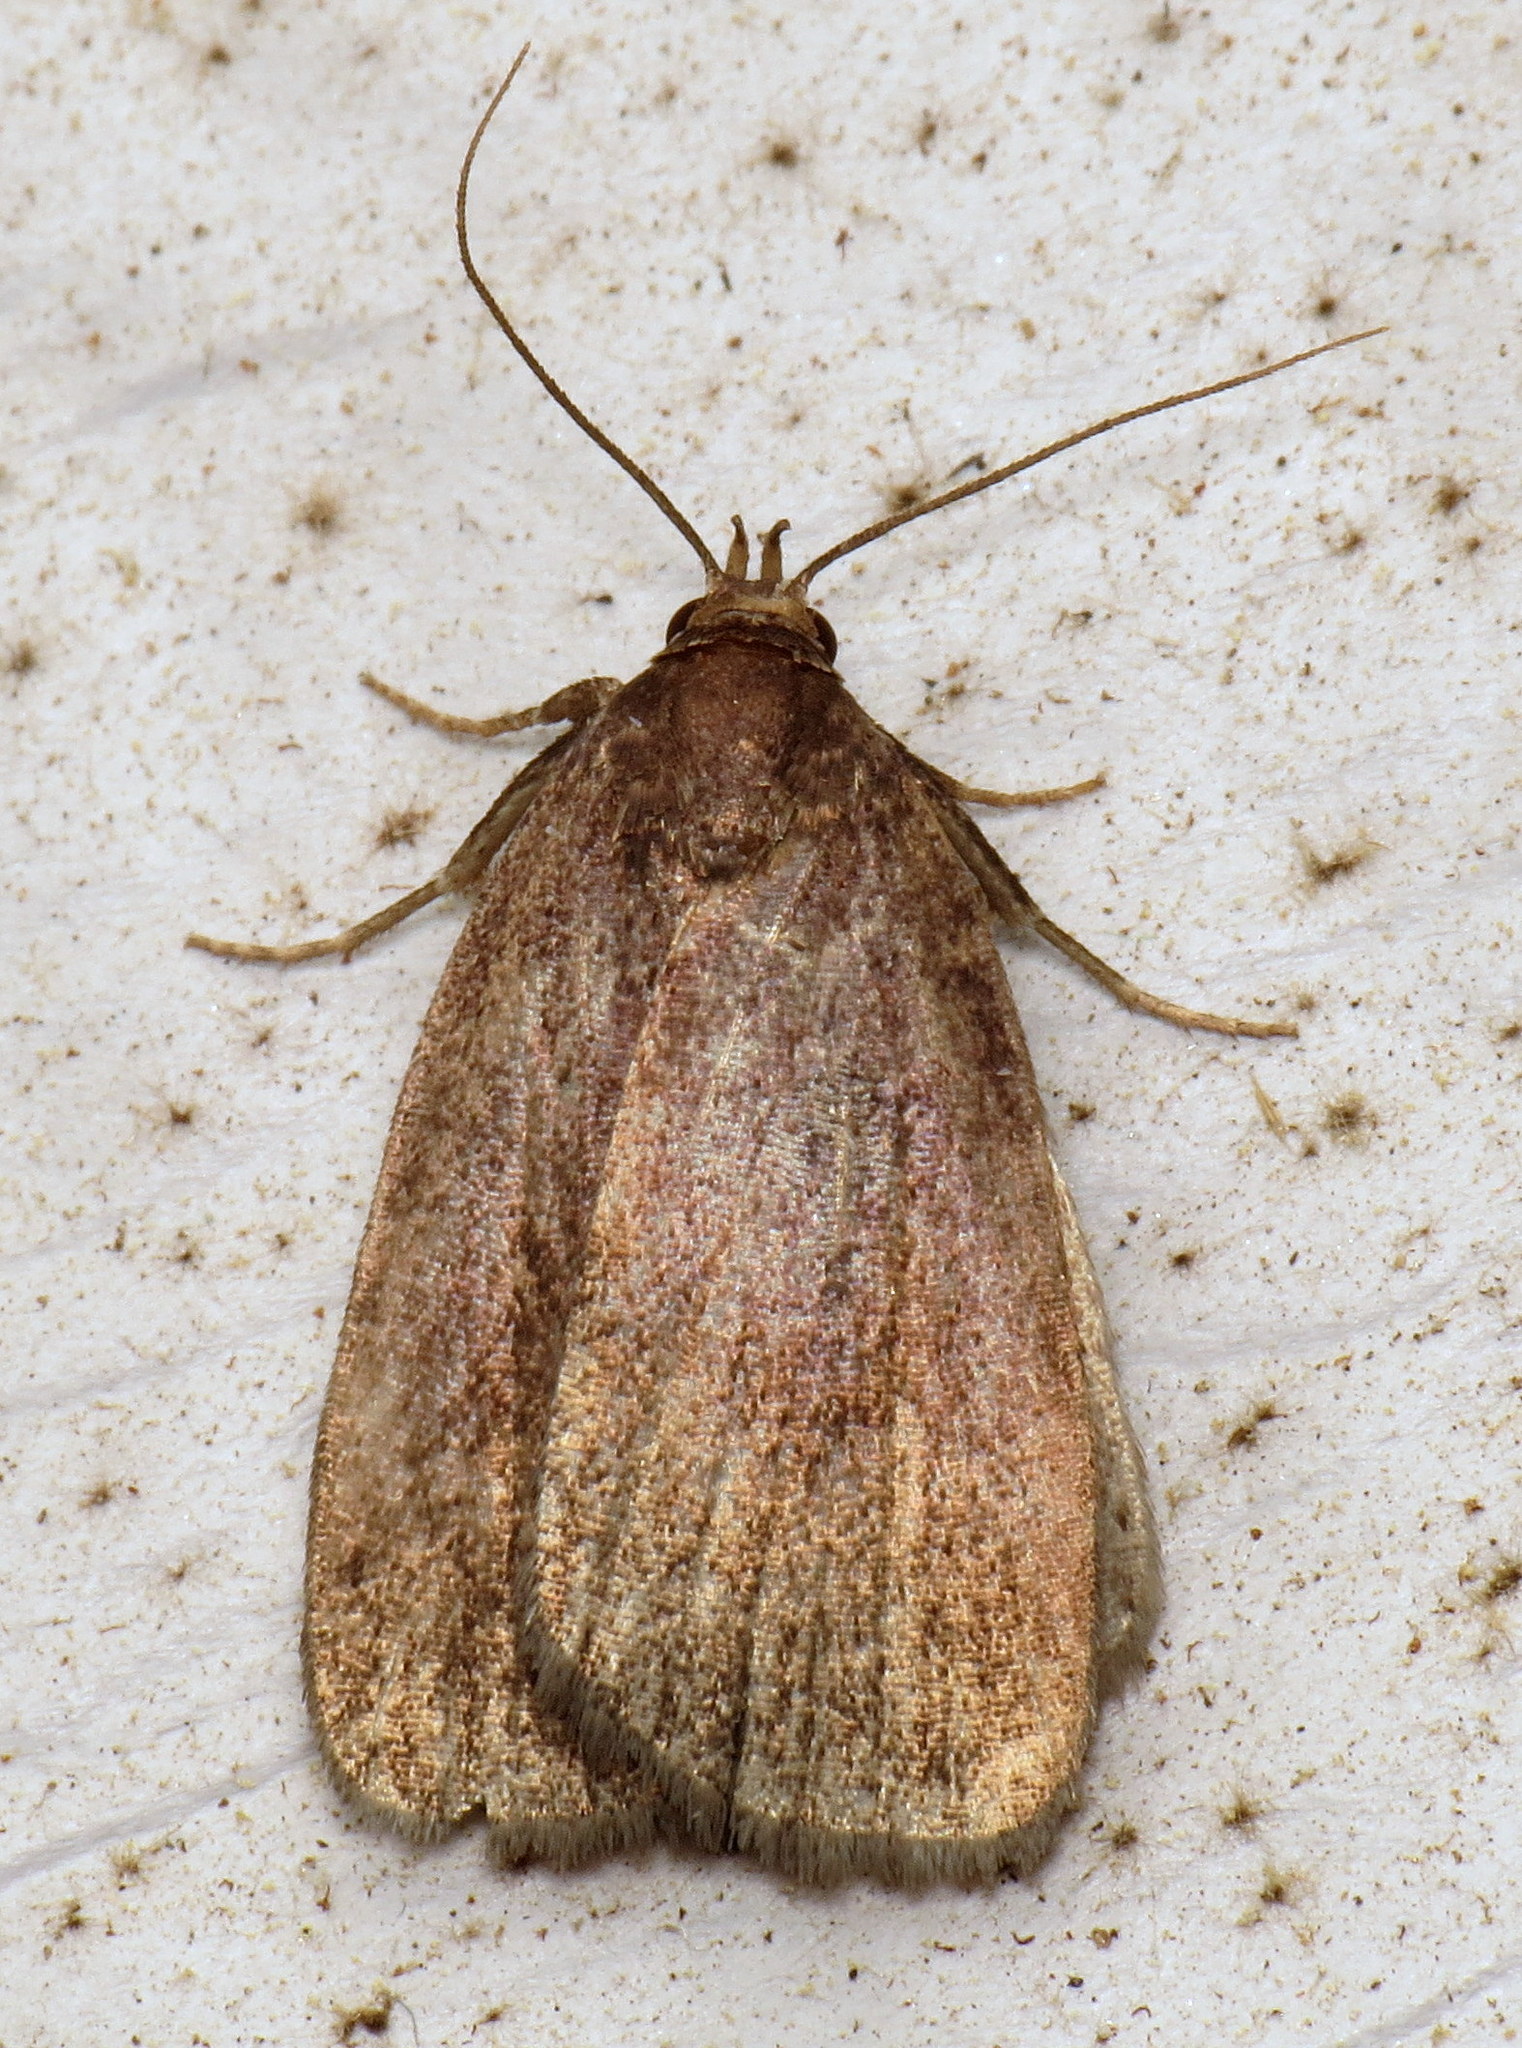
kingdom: Animalia
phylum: Arthropoda
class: Insecta
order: Lepidoptera
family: Erebidae
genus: Idia
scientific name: Idia rotundalis
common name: Rotund idia moth
